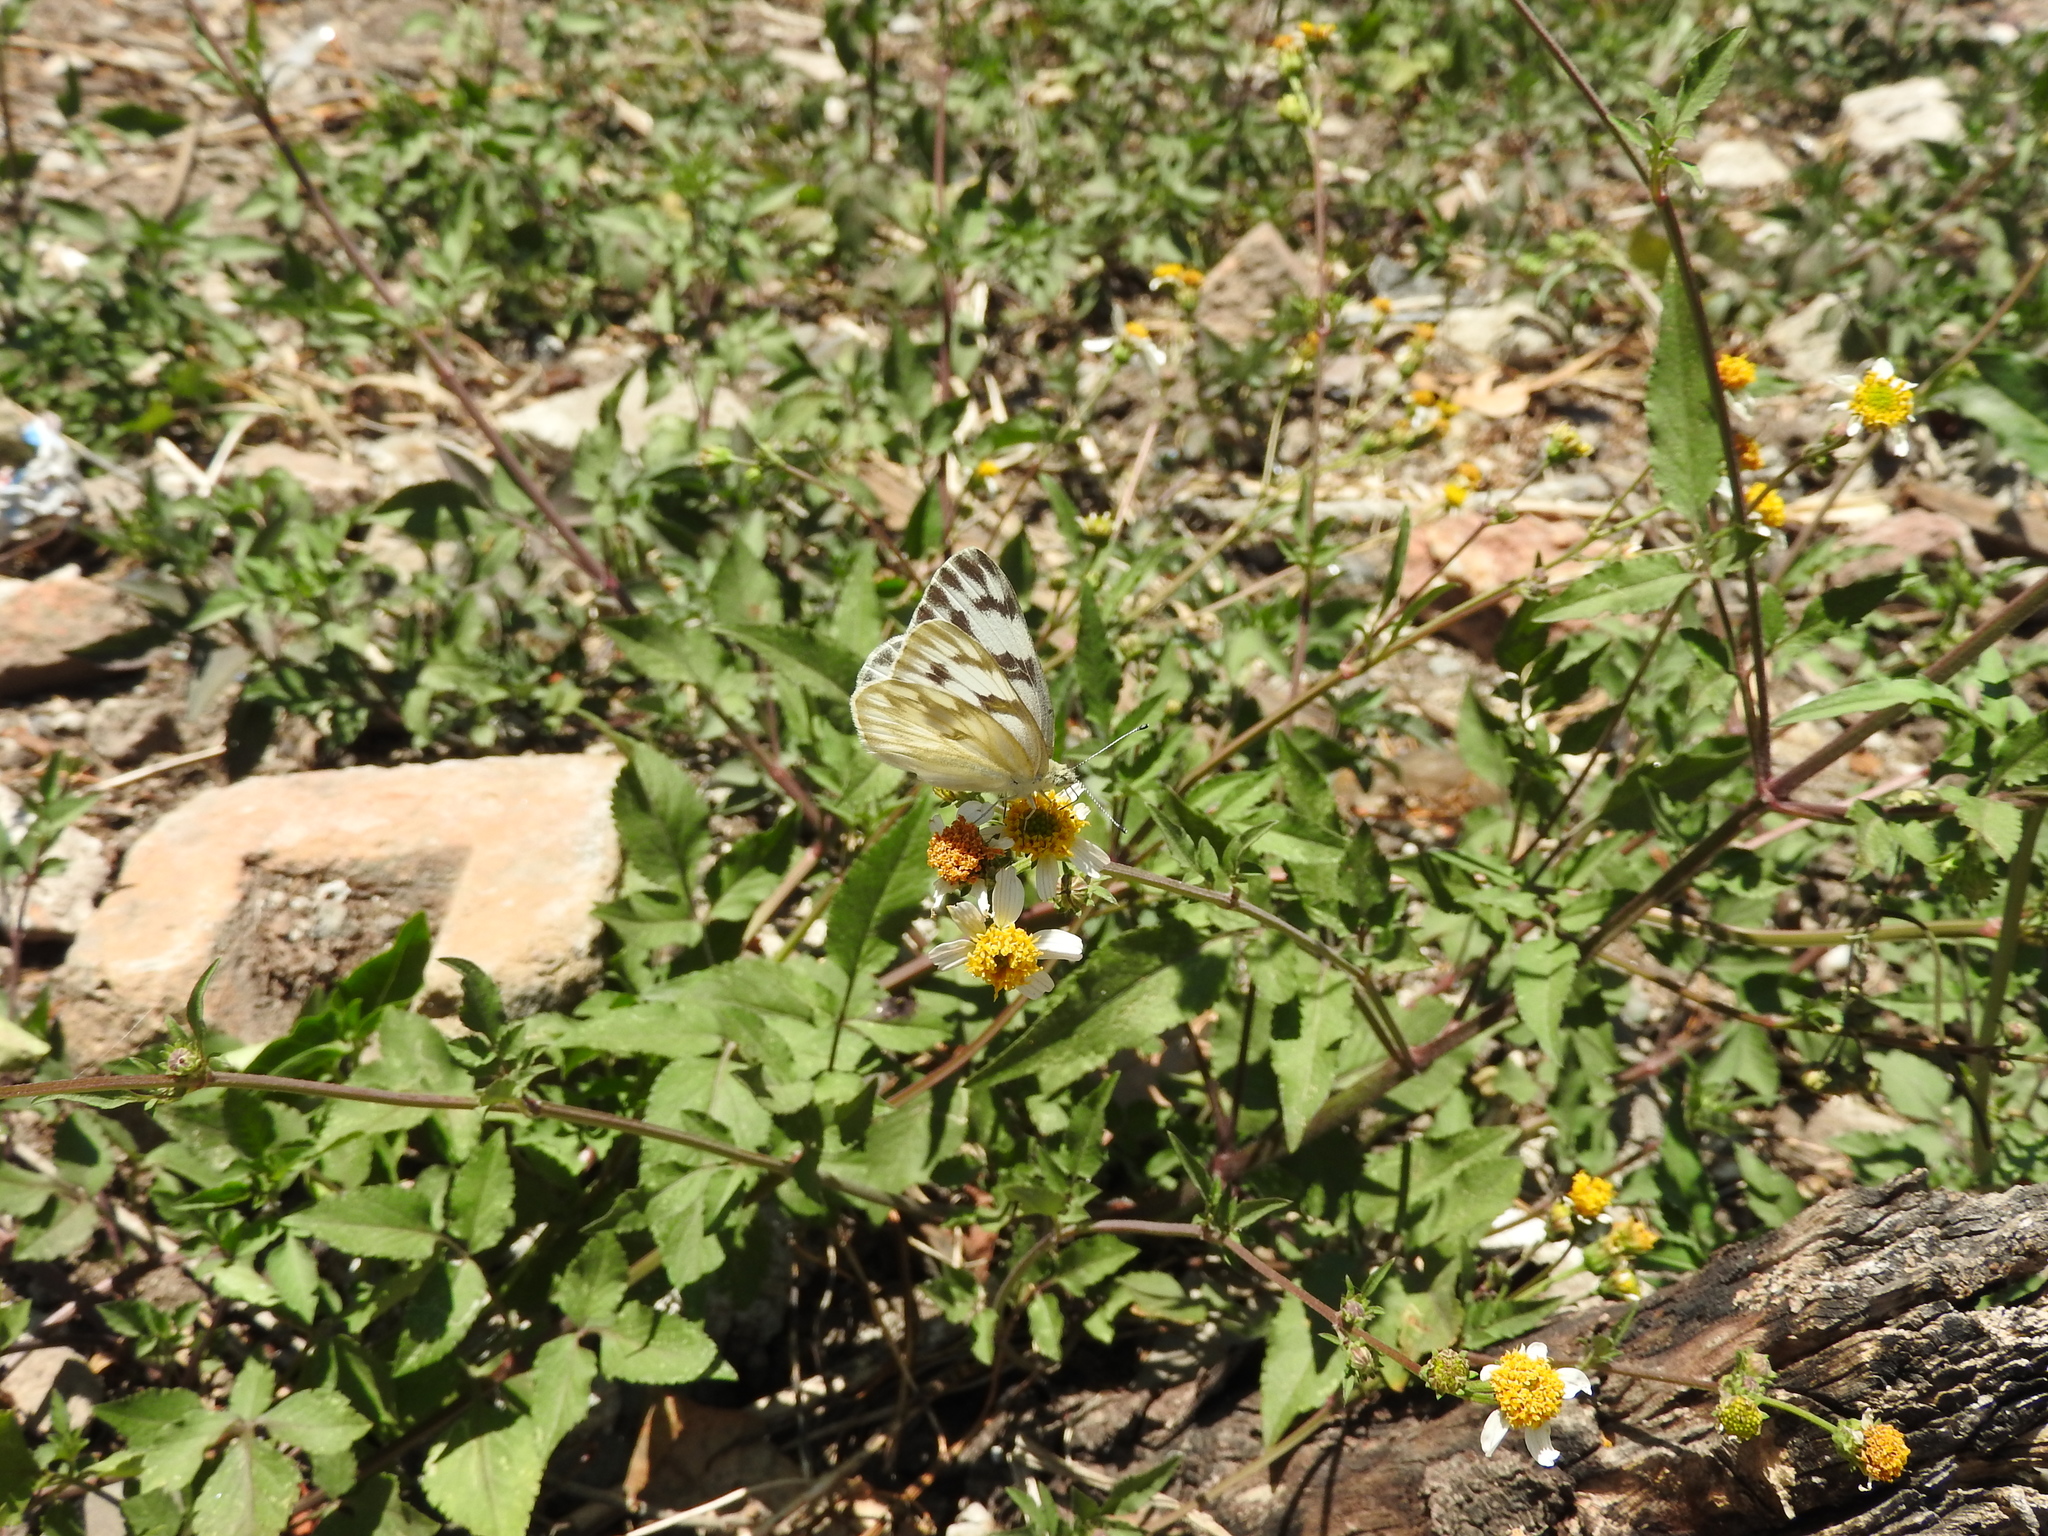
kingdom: Animalia
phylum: Arthropoda
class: Insecta
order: Lepidoptera
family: Pieridae
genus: Pontia
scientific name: Pontia protodice
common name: Checkered white
